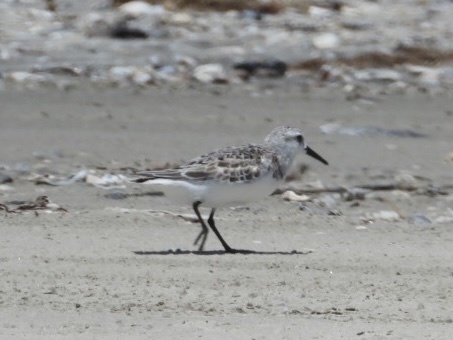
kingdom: Animalia
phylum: Chordata
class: Aves
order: Charadriiformes
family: Scolopacidae
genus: Calidris
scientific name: Calidris alba
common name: Sanderling
